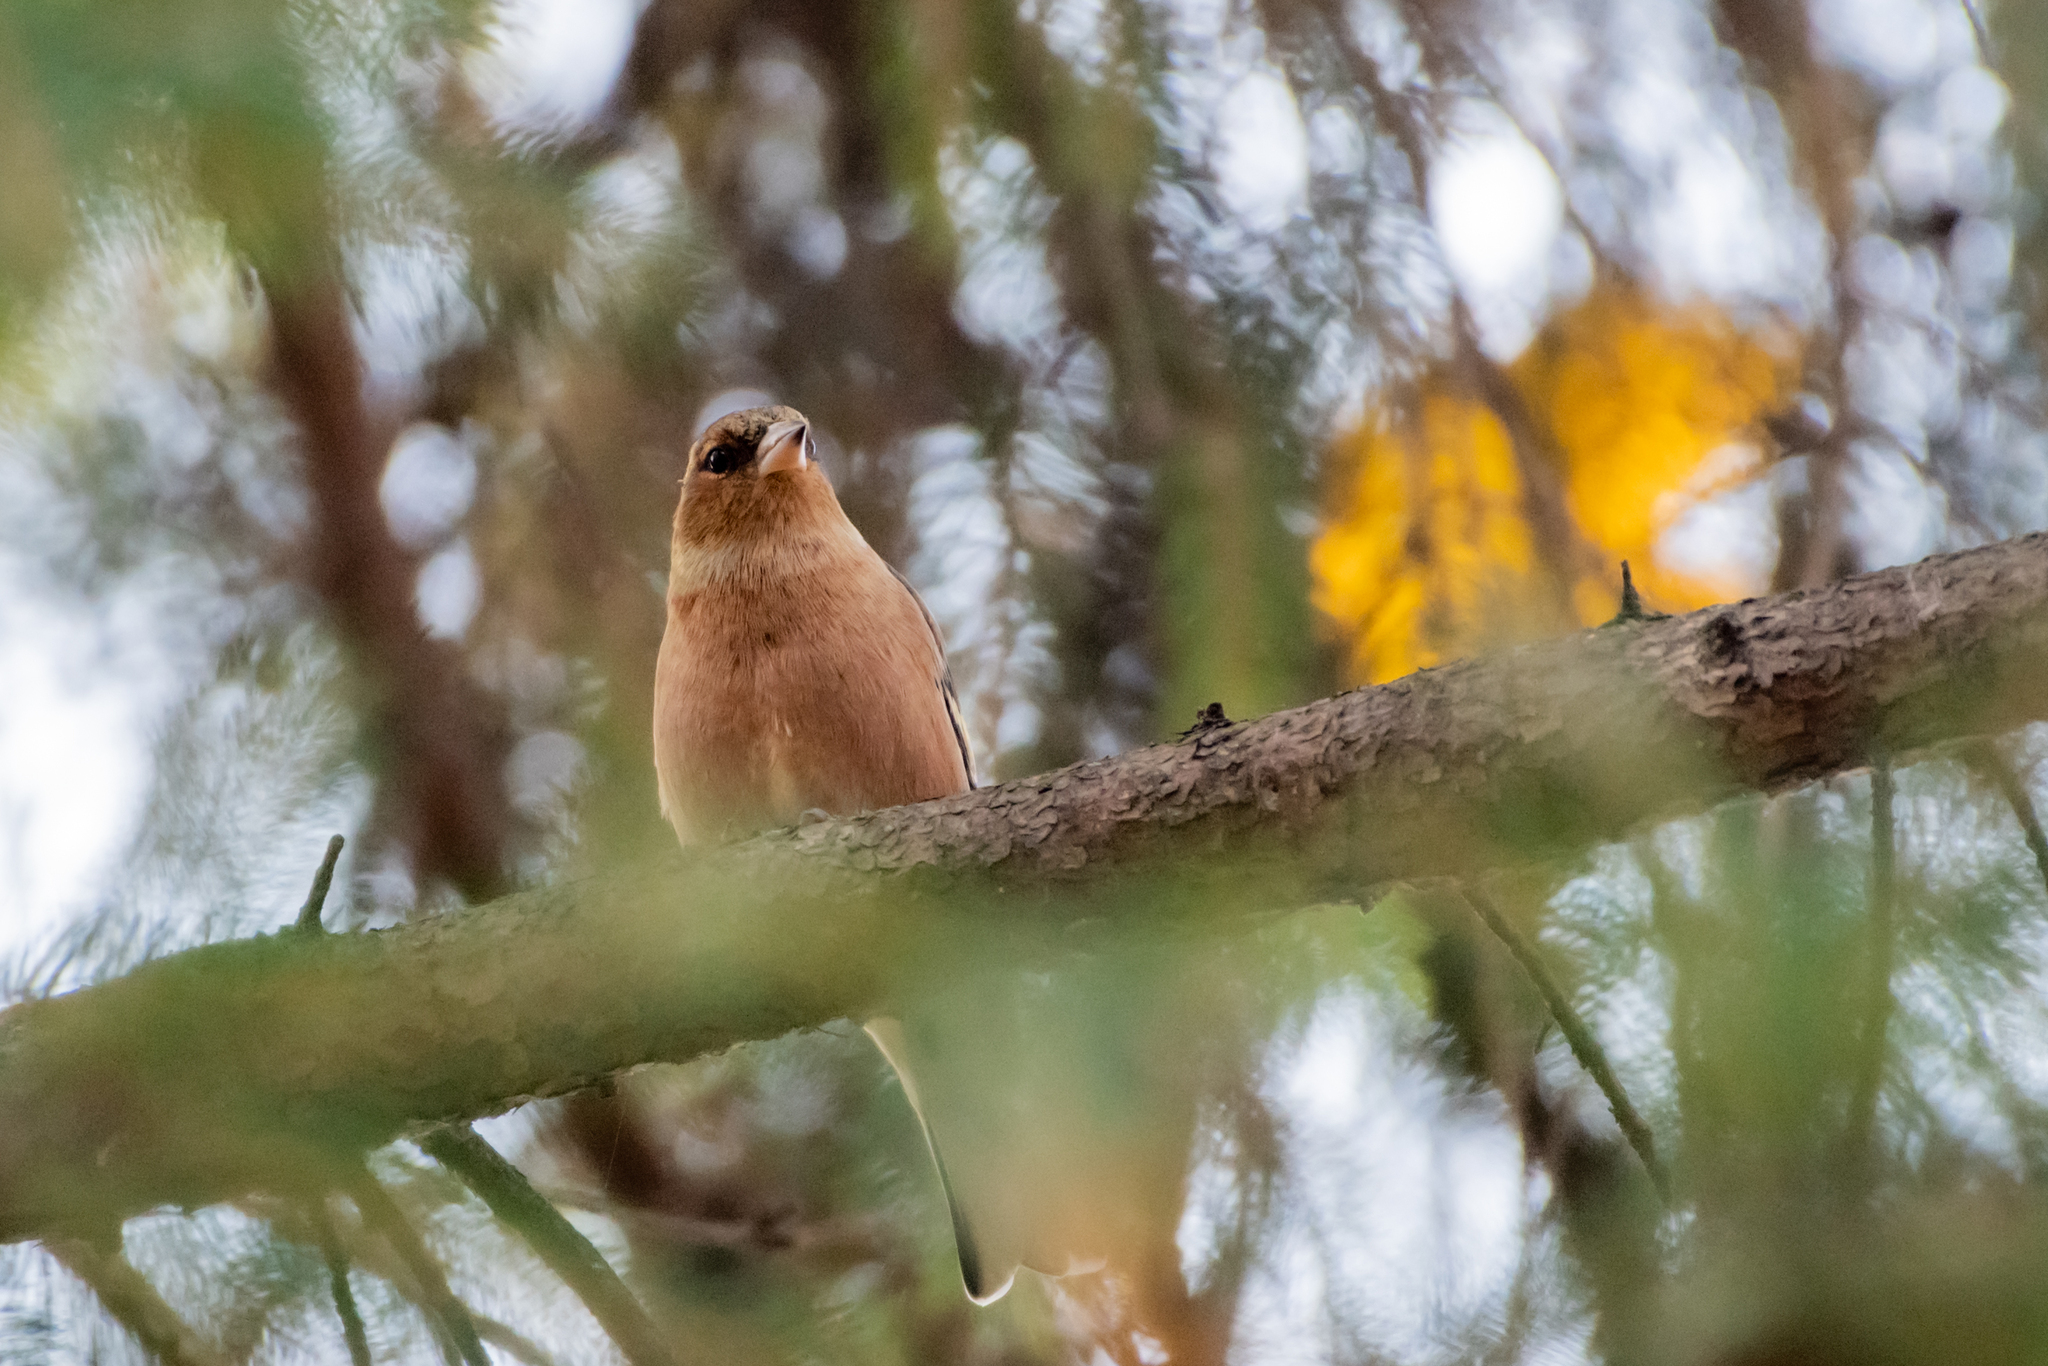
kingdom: Animalia
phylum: Chordata
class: Aves
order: Passeriformes
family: Fringillidae
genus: Fringilla
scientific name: Fringilla coelebs
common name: Common chaffinch
